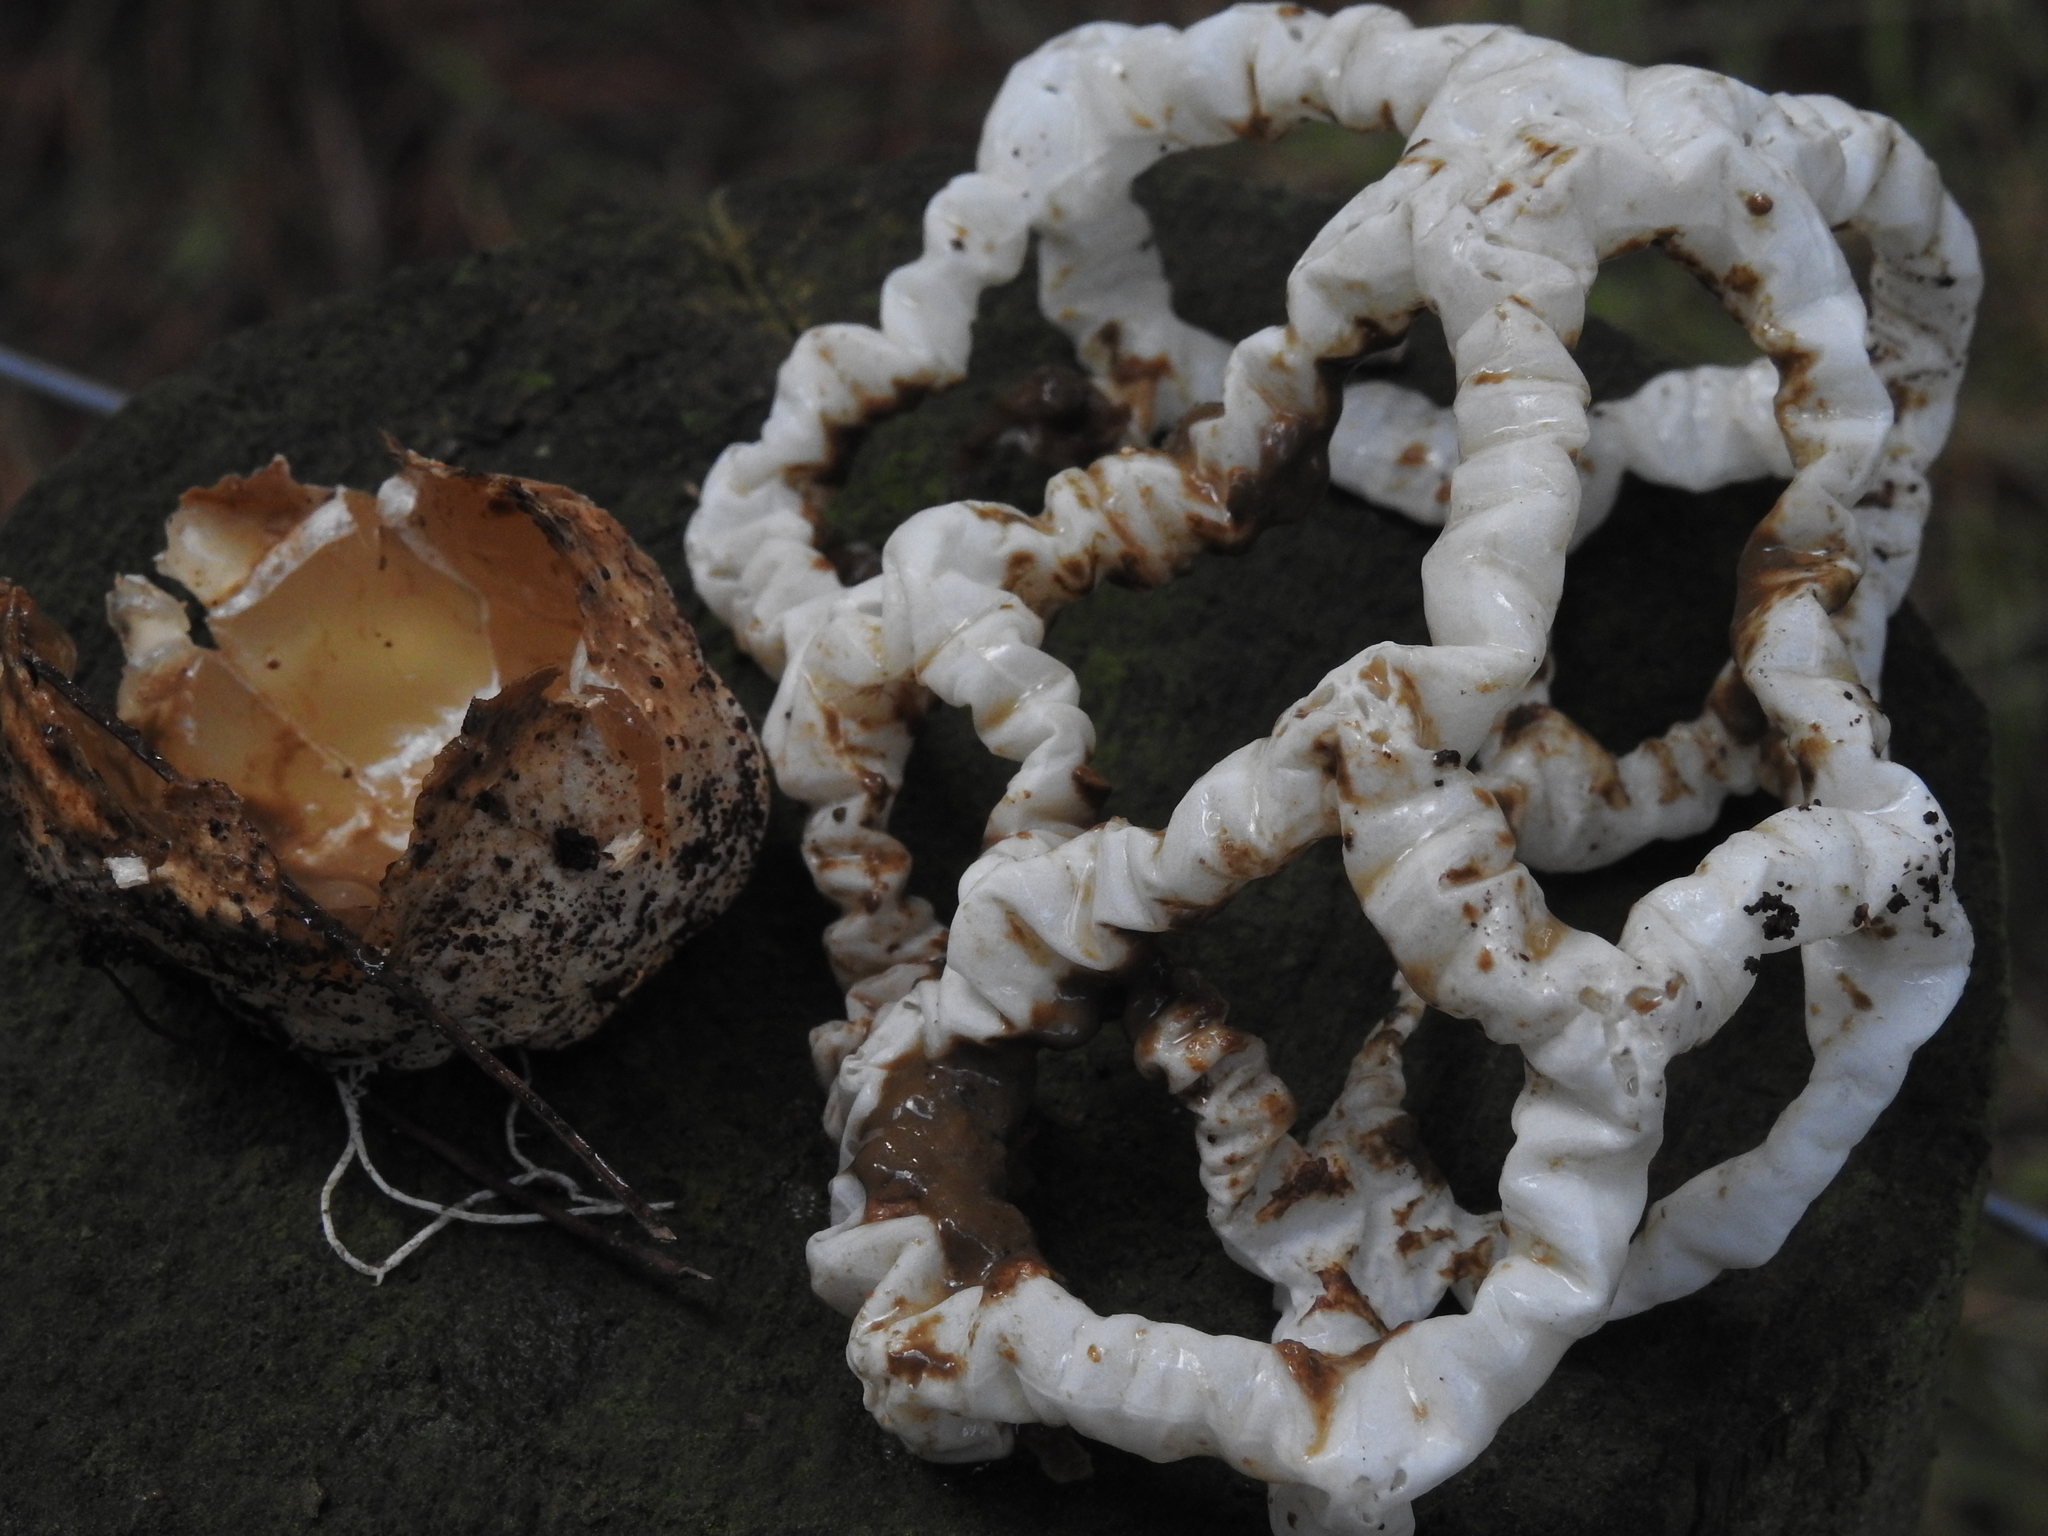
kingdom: Fungi
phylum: Basidiomycota
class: Agaricomycetes
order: Phallales
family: Phallaceae
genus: Ileodictyon
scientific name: Ileodictyon cibarium
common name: Basket fungus
